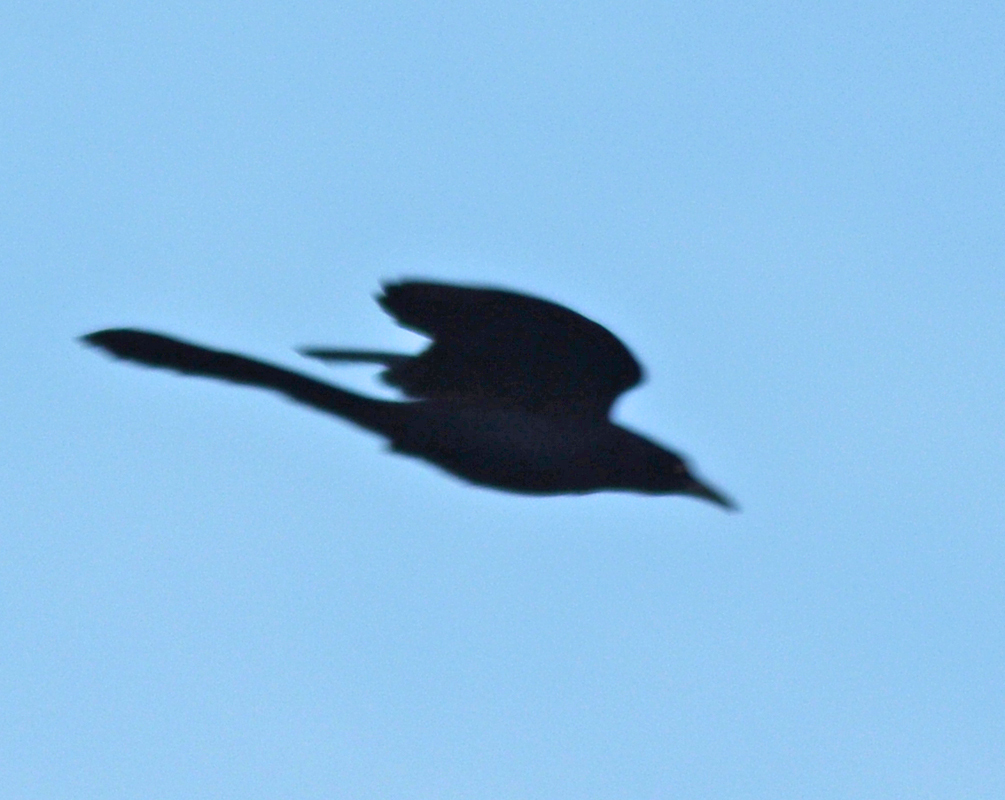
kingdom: Animalia
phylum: Chordata
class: Aves
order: Passeriformes
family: Icteridae
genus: Quiscalus
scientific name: Quiscalus mexicanus
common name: Great-tailed grackle
